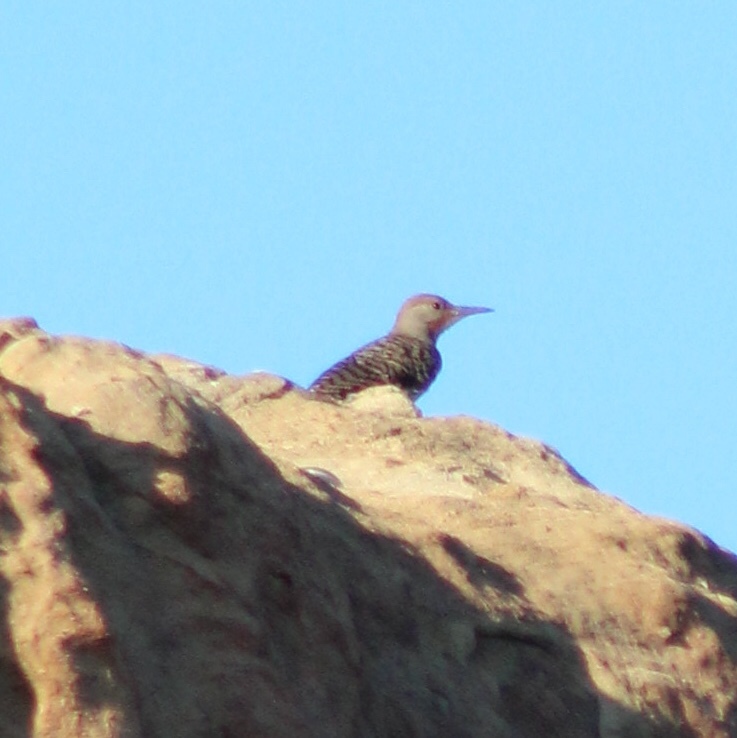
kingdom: Animalia
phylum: Chordata
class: Aves
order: Piciformes
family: Picidae
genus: Colaptes
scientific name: Colaptes auratus
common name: Northern flicker
